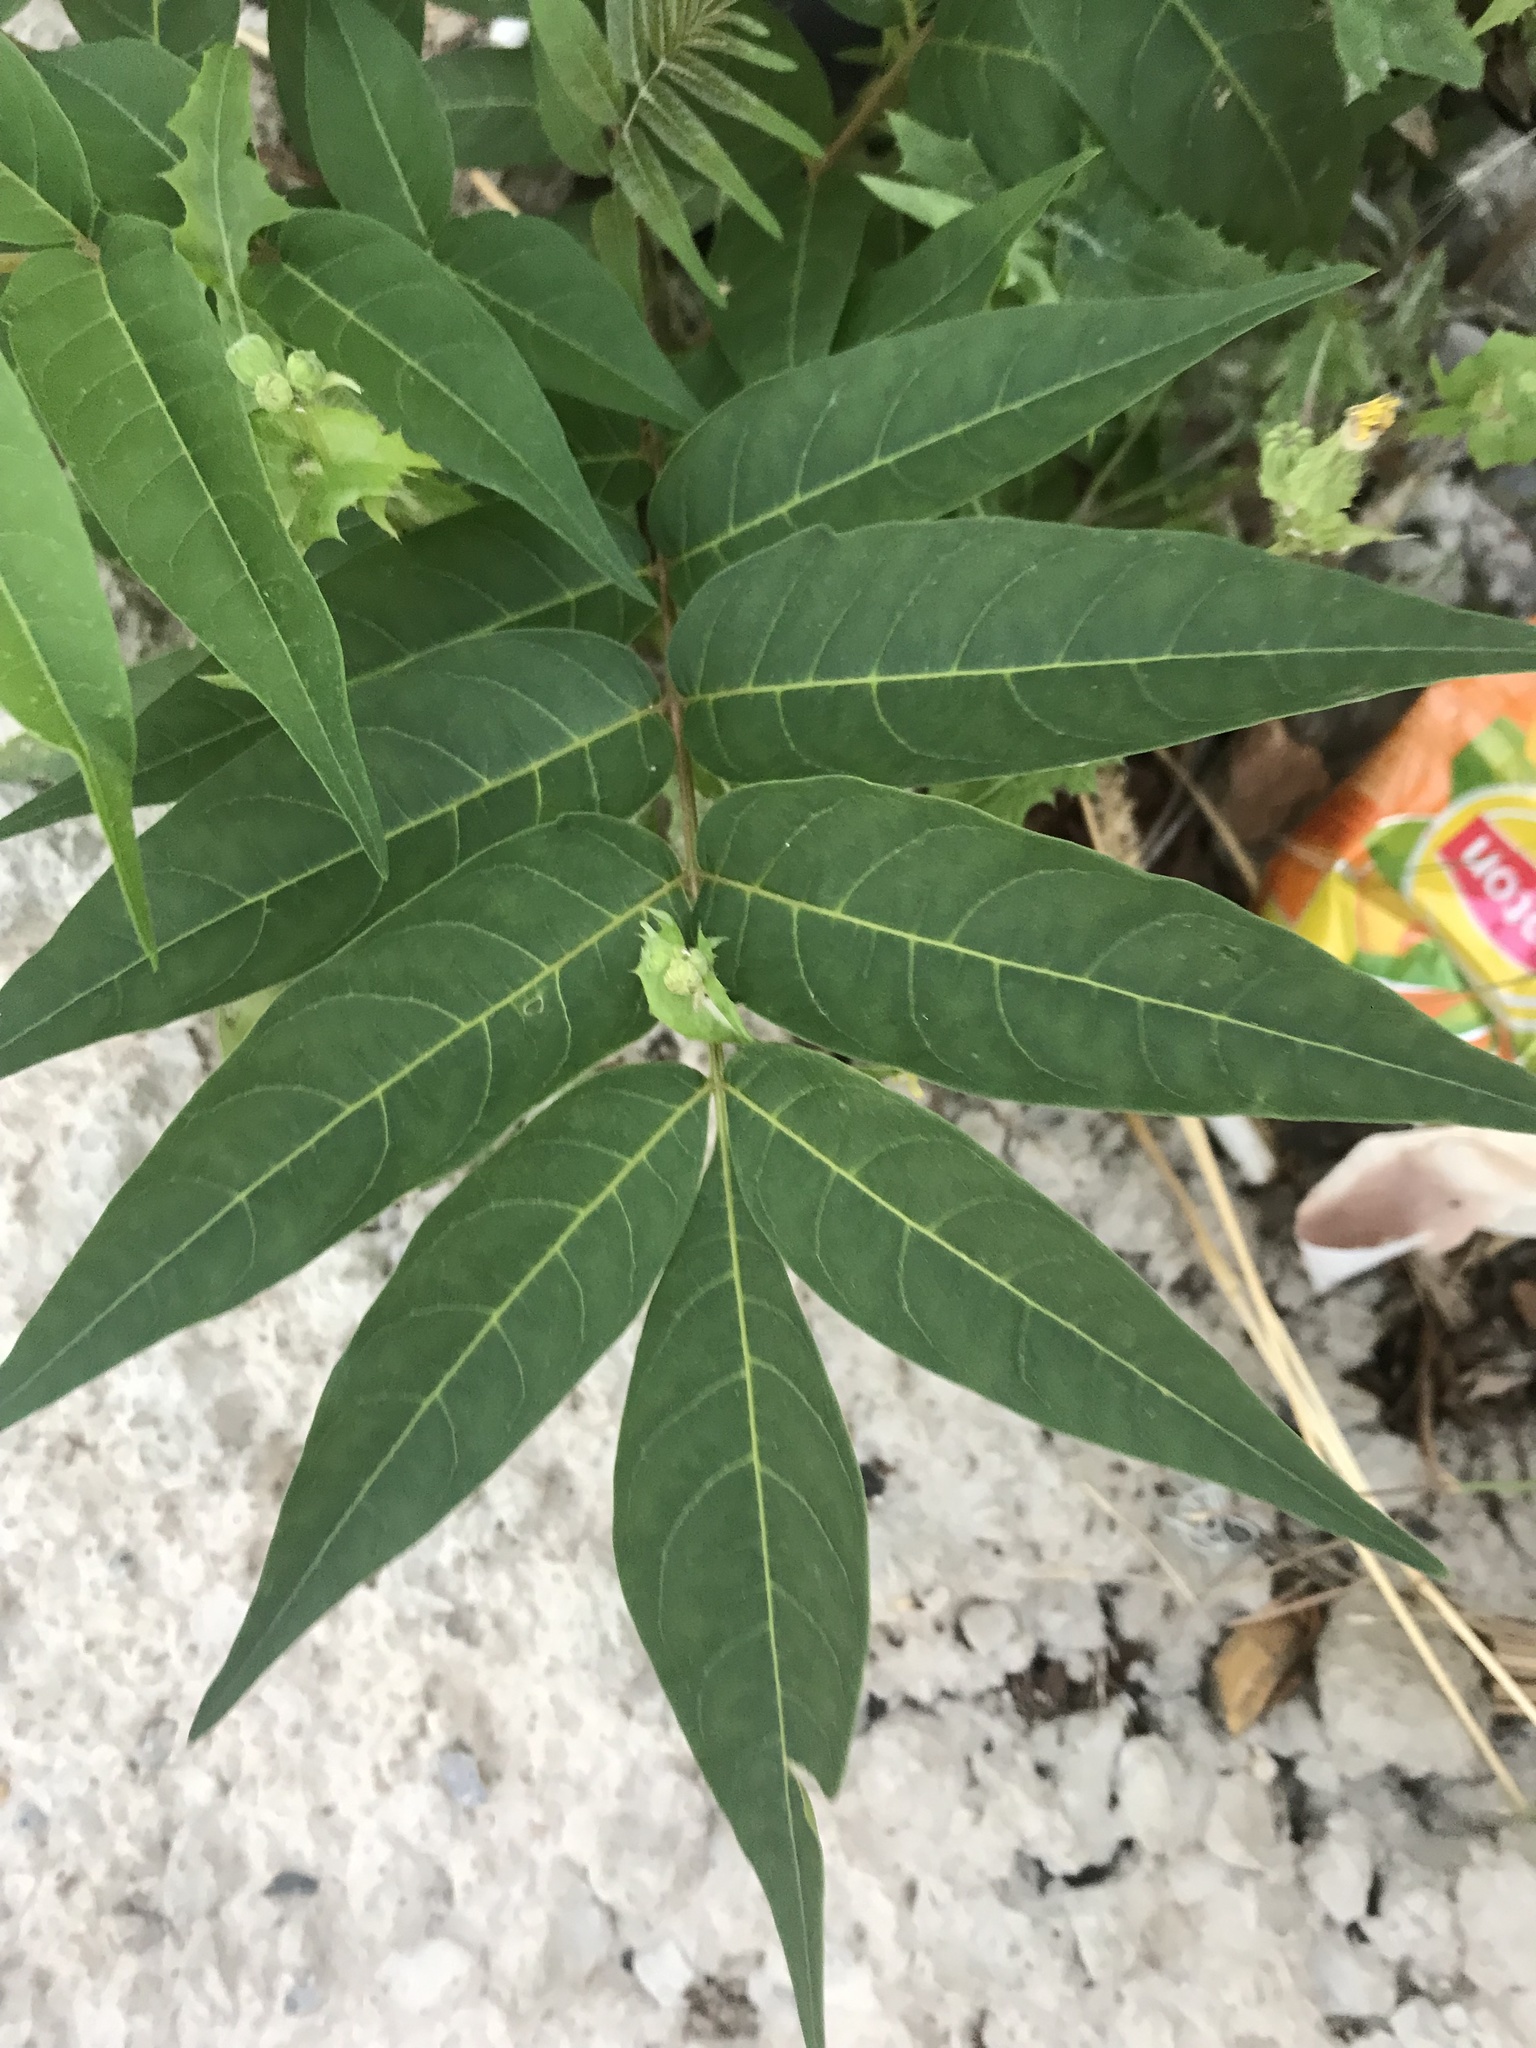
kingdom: Plantae
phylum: Tracheophyta
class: Magnoliopsida
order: Sapindales
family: Simaroubaceae
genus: Ailanthus
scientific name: Ailanthus altissima
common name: Tree-of-heaven
